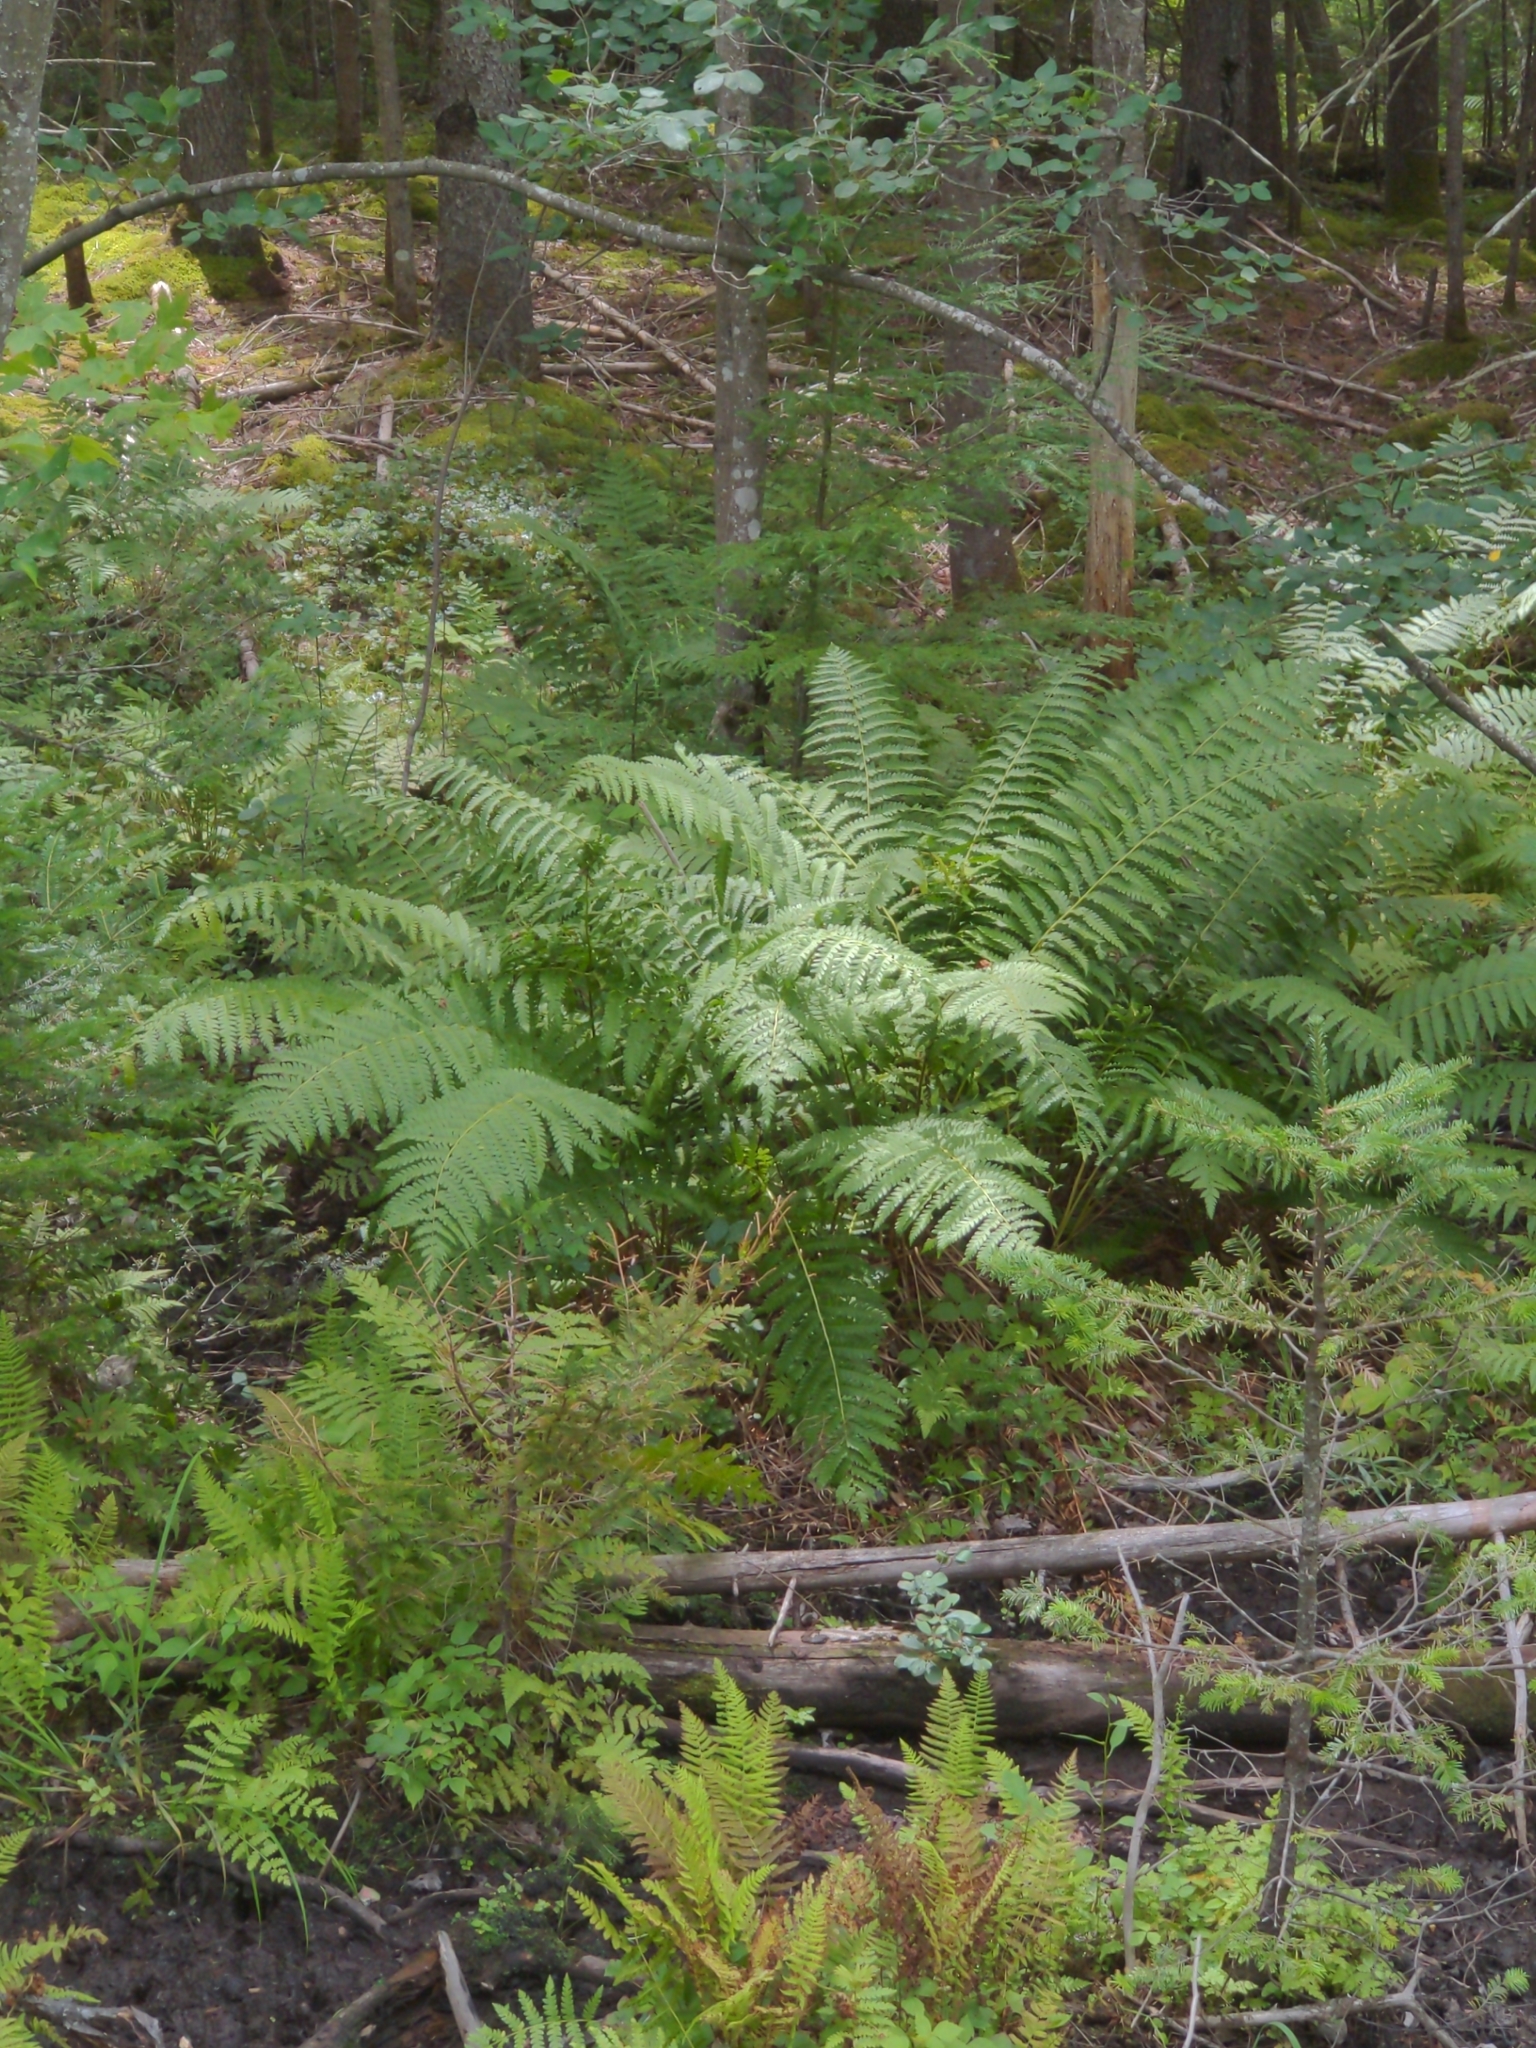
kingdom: Plantae
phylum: Tracheophyta
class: Polypodiopsida
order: Osmundales
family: Osmundaceae
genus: Osmundastrum
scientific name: Osmundastrum cinnamomeum
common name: Cinnamon fern
